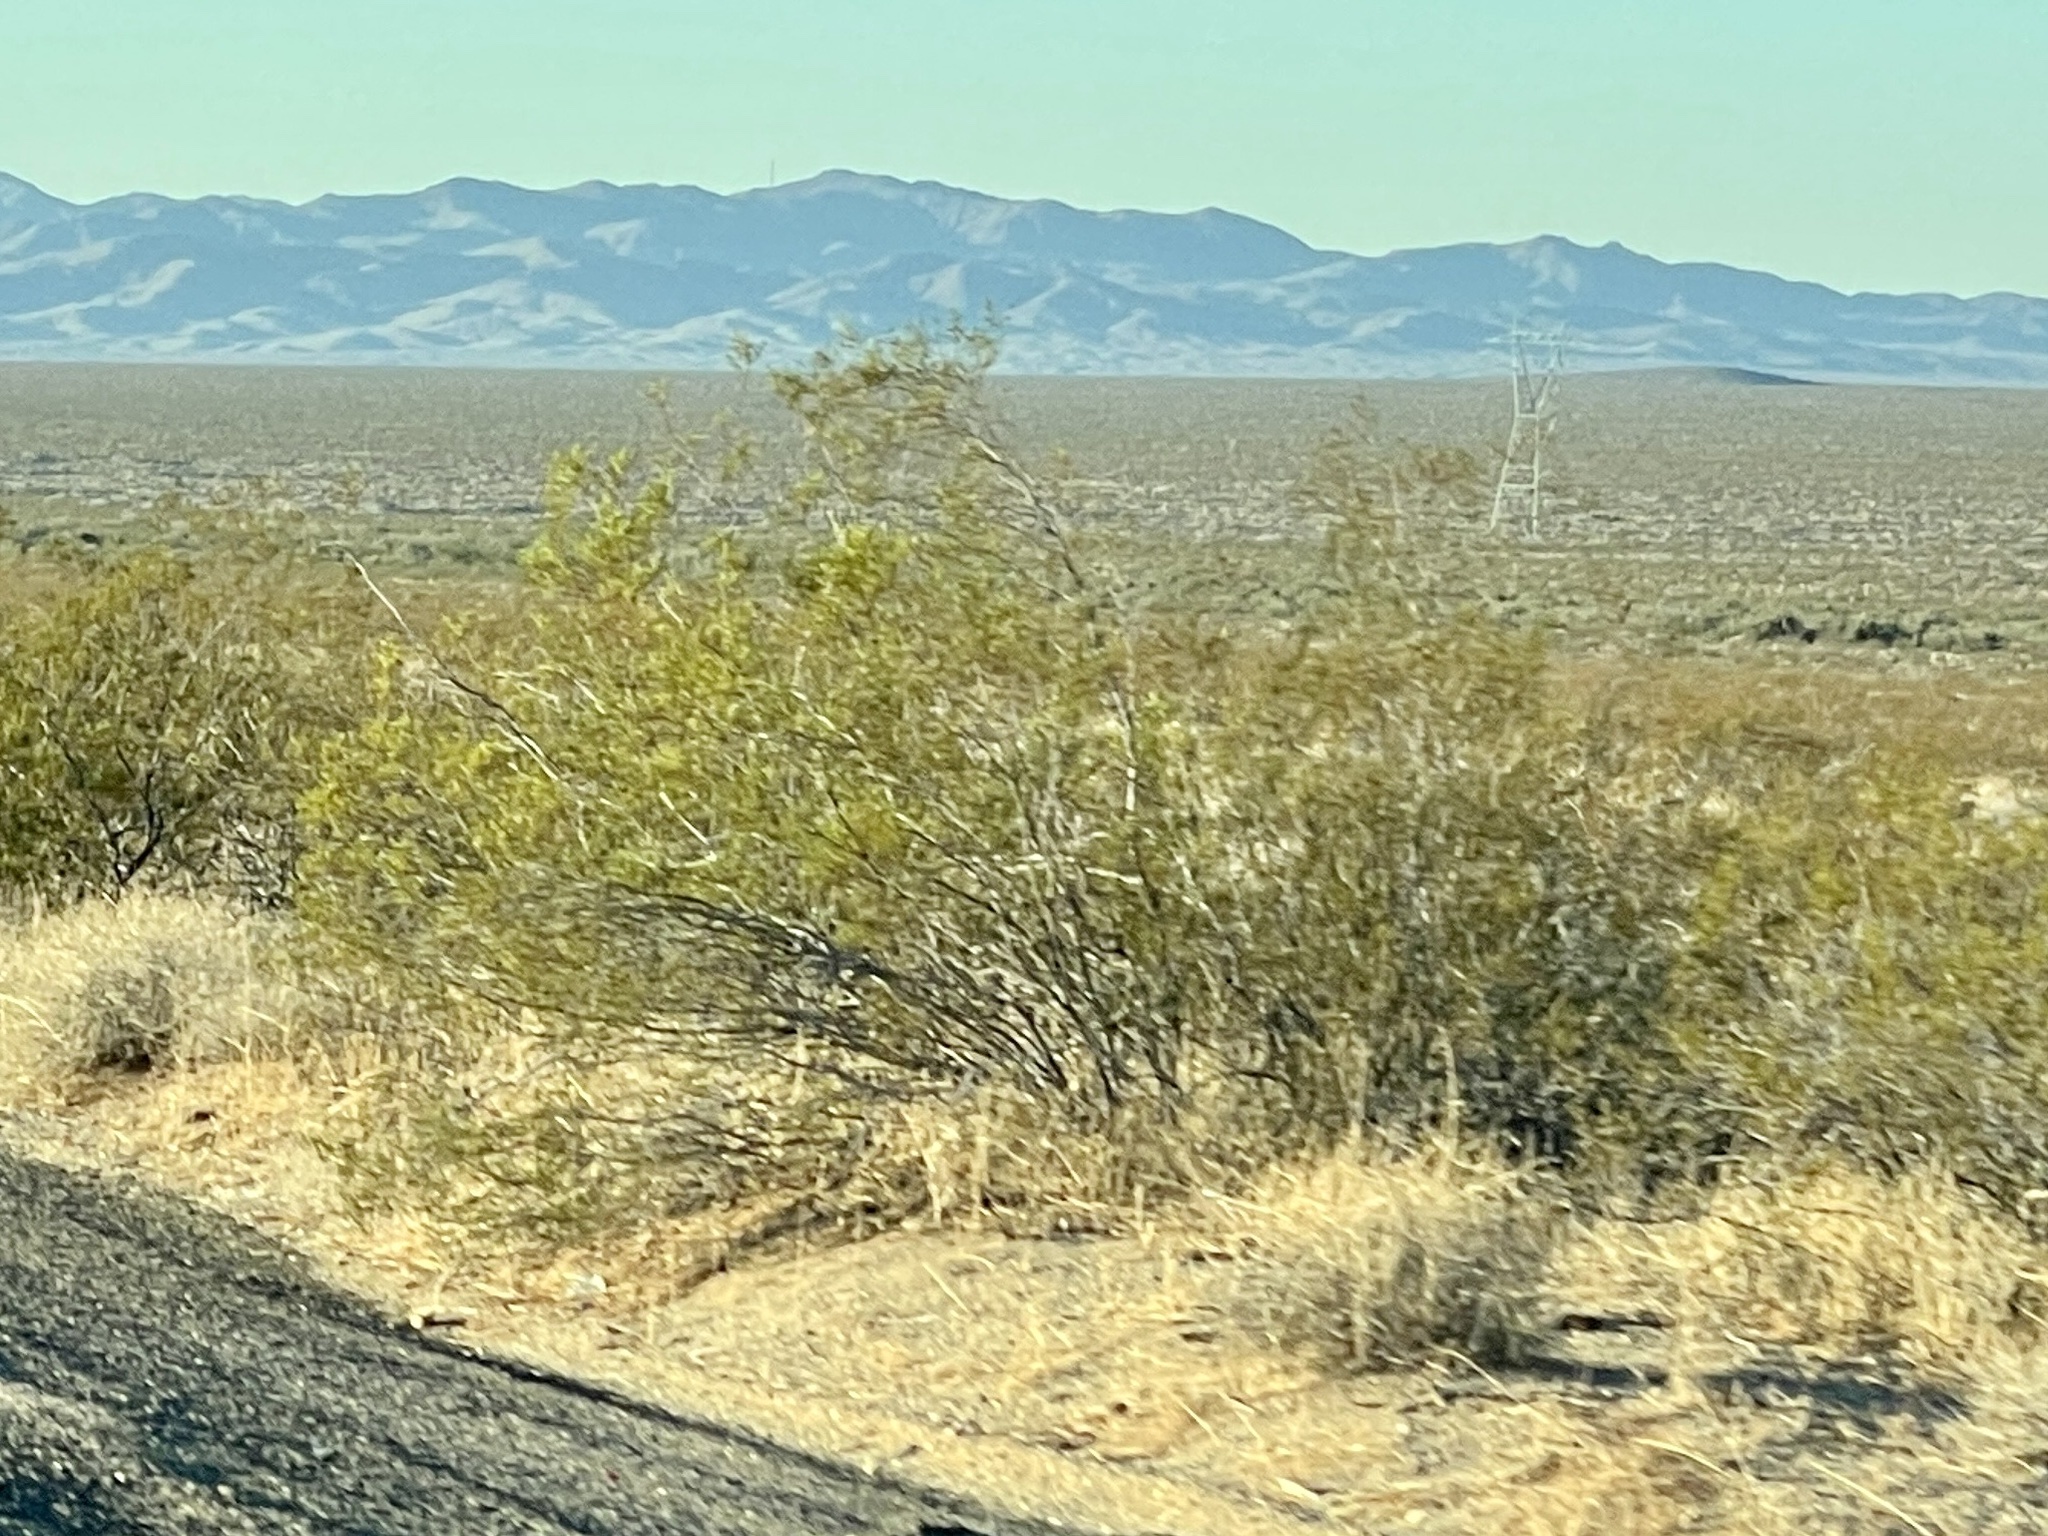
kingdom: Plantae
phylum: Tracheophyta
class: Magnoliopsida
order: Zygophyllales
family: Zygophyllaceae
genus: Larrea
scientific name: Larrea tridentata
